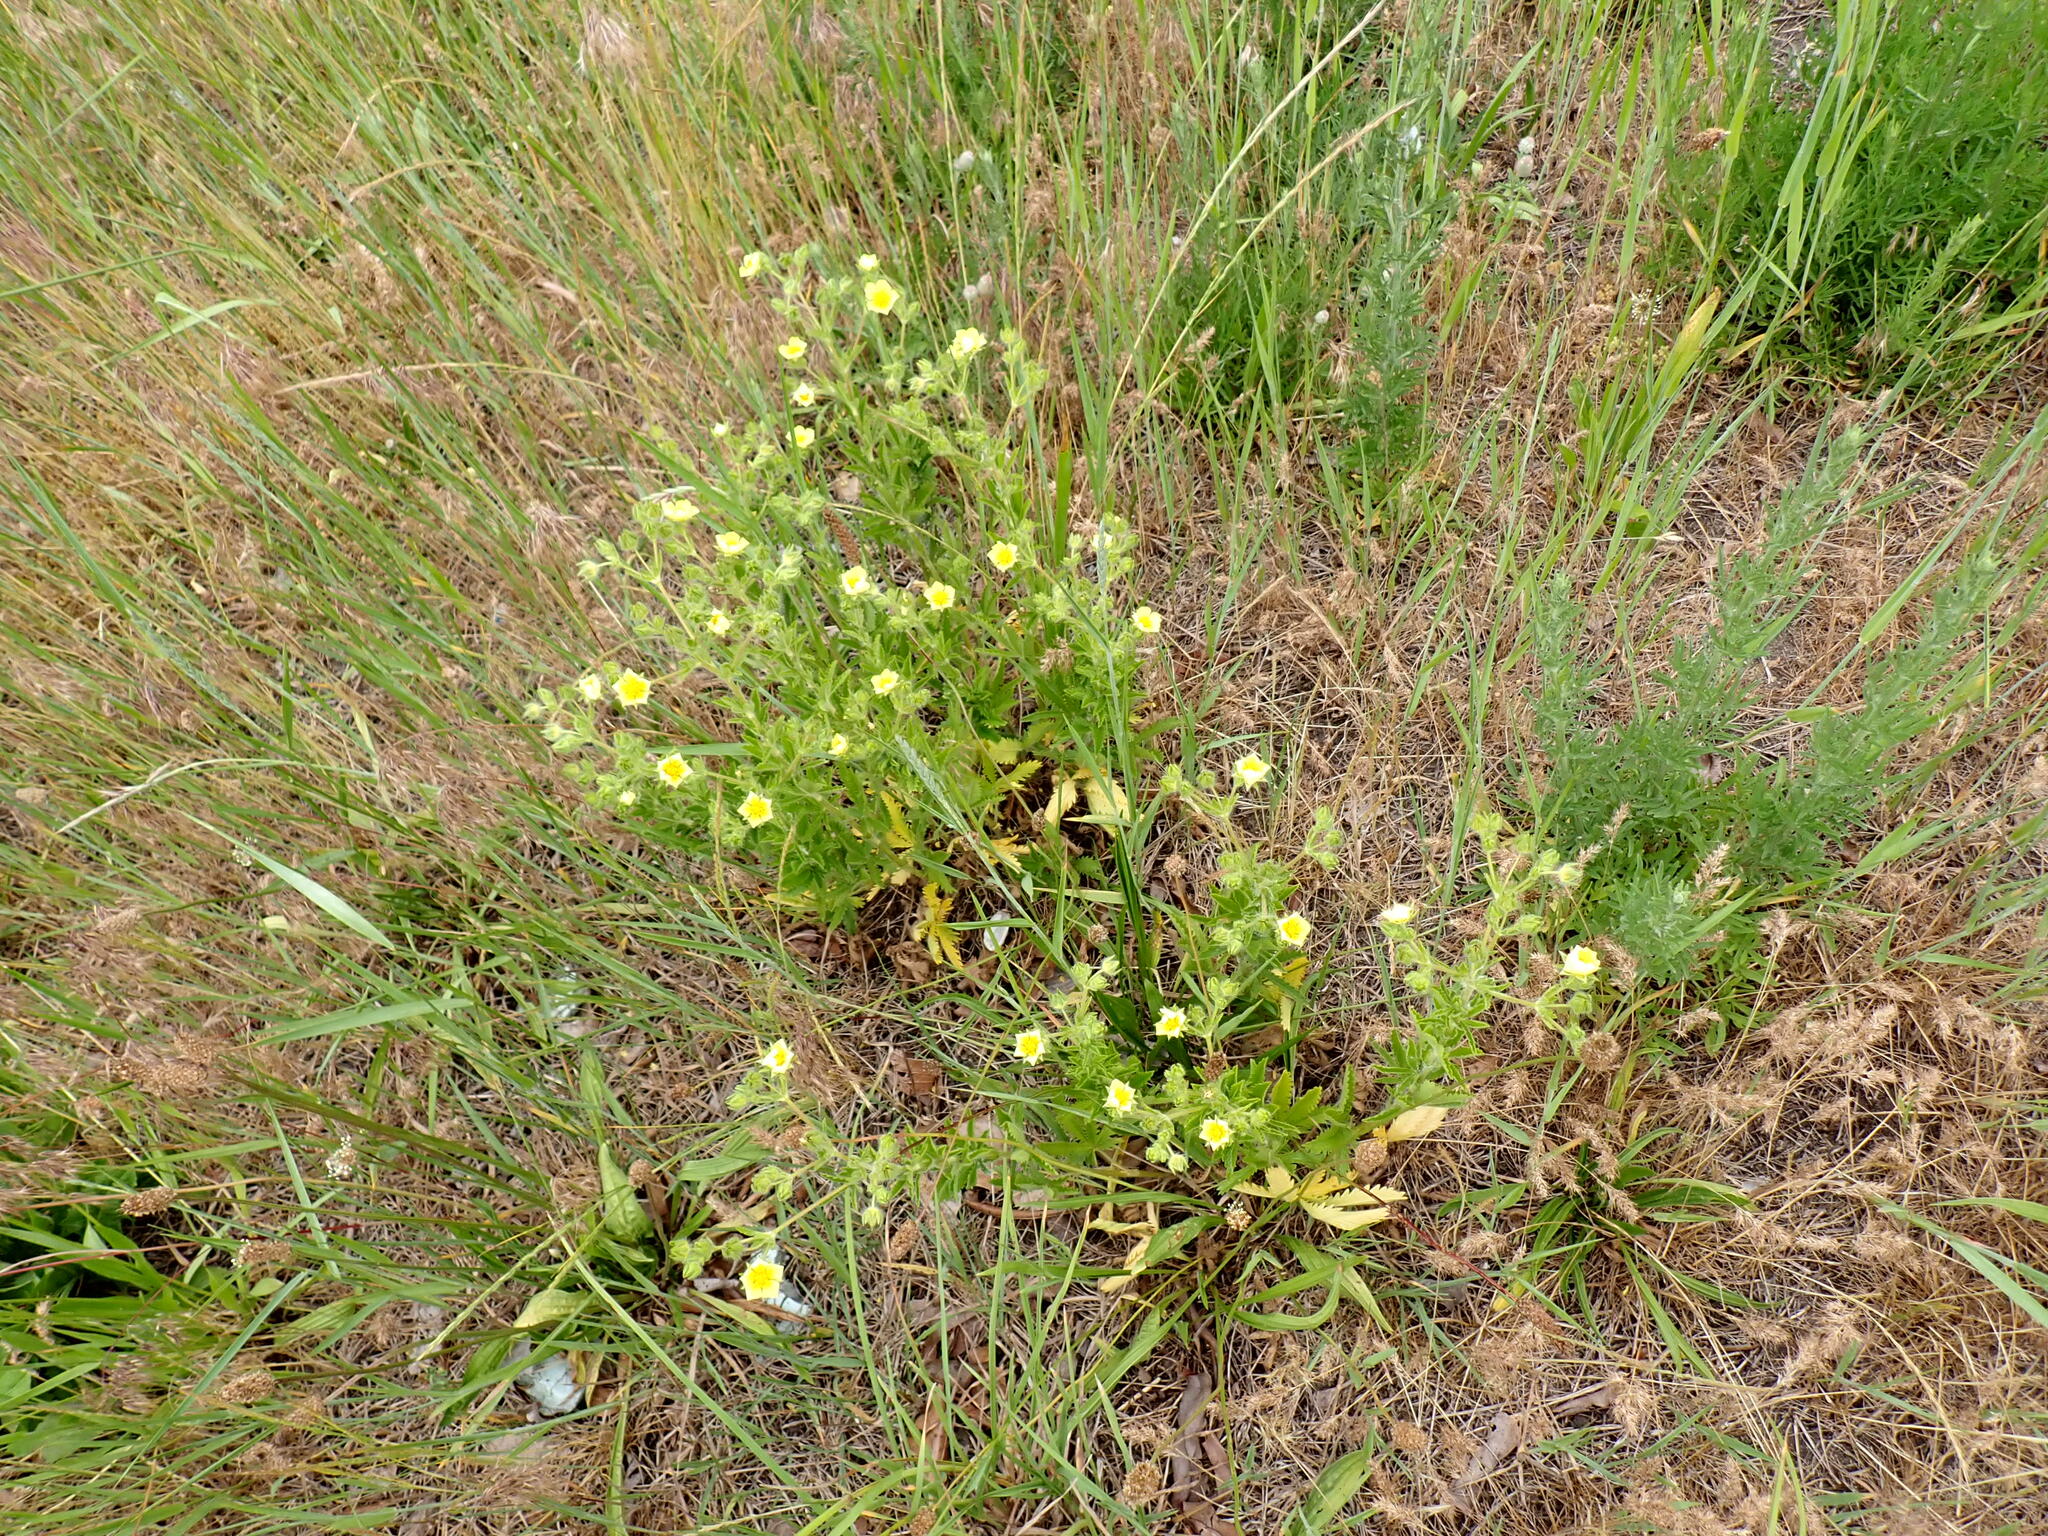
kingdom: Plantae
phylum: Tracheophyta
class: Magnoliopsida
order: Rosales
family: Rosaceae
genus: Potentilla
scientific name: Potentilla recta
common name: Sulphur cinquefoil
